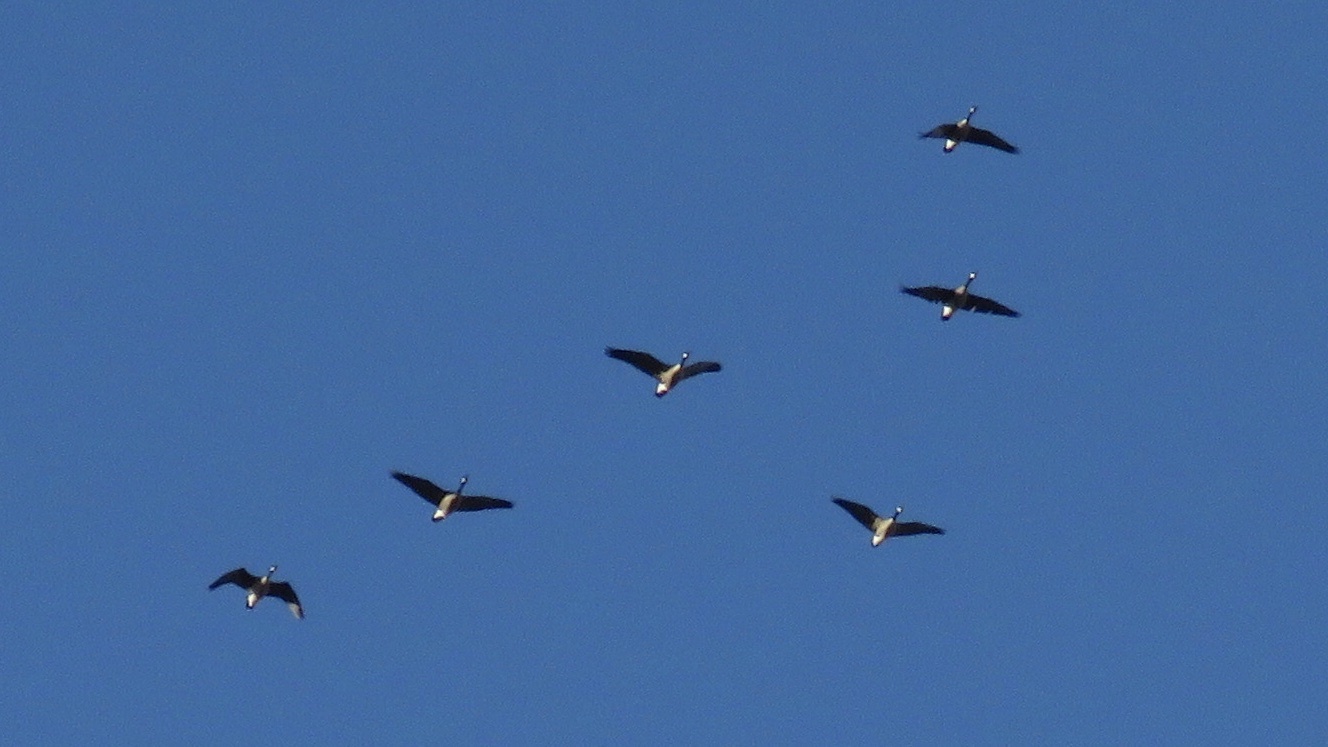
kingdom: Animalia
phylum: Chordata
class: Aves
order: Anseriformes
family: Anatidae
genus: Branta
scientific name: Branta canadensis
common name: Canada goose
